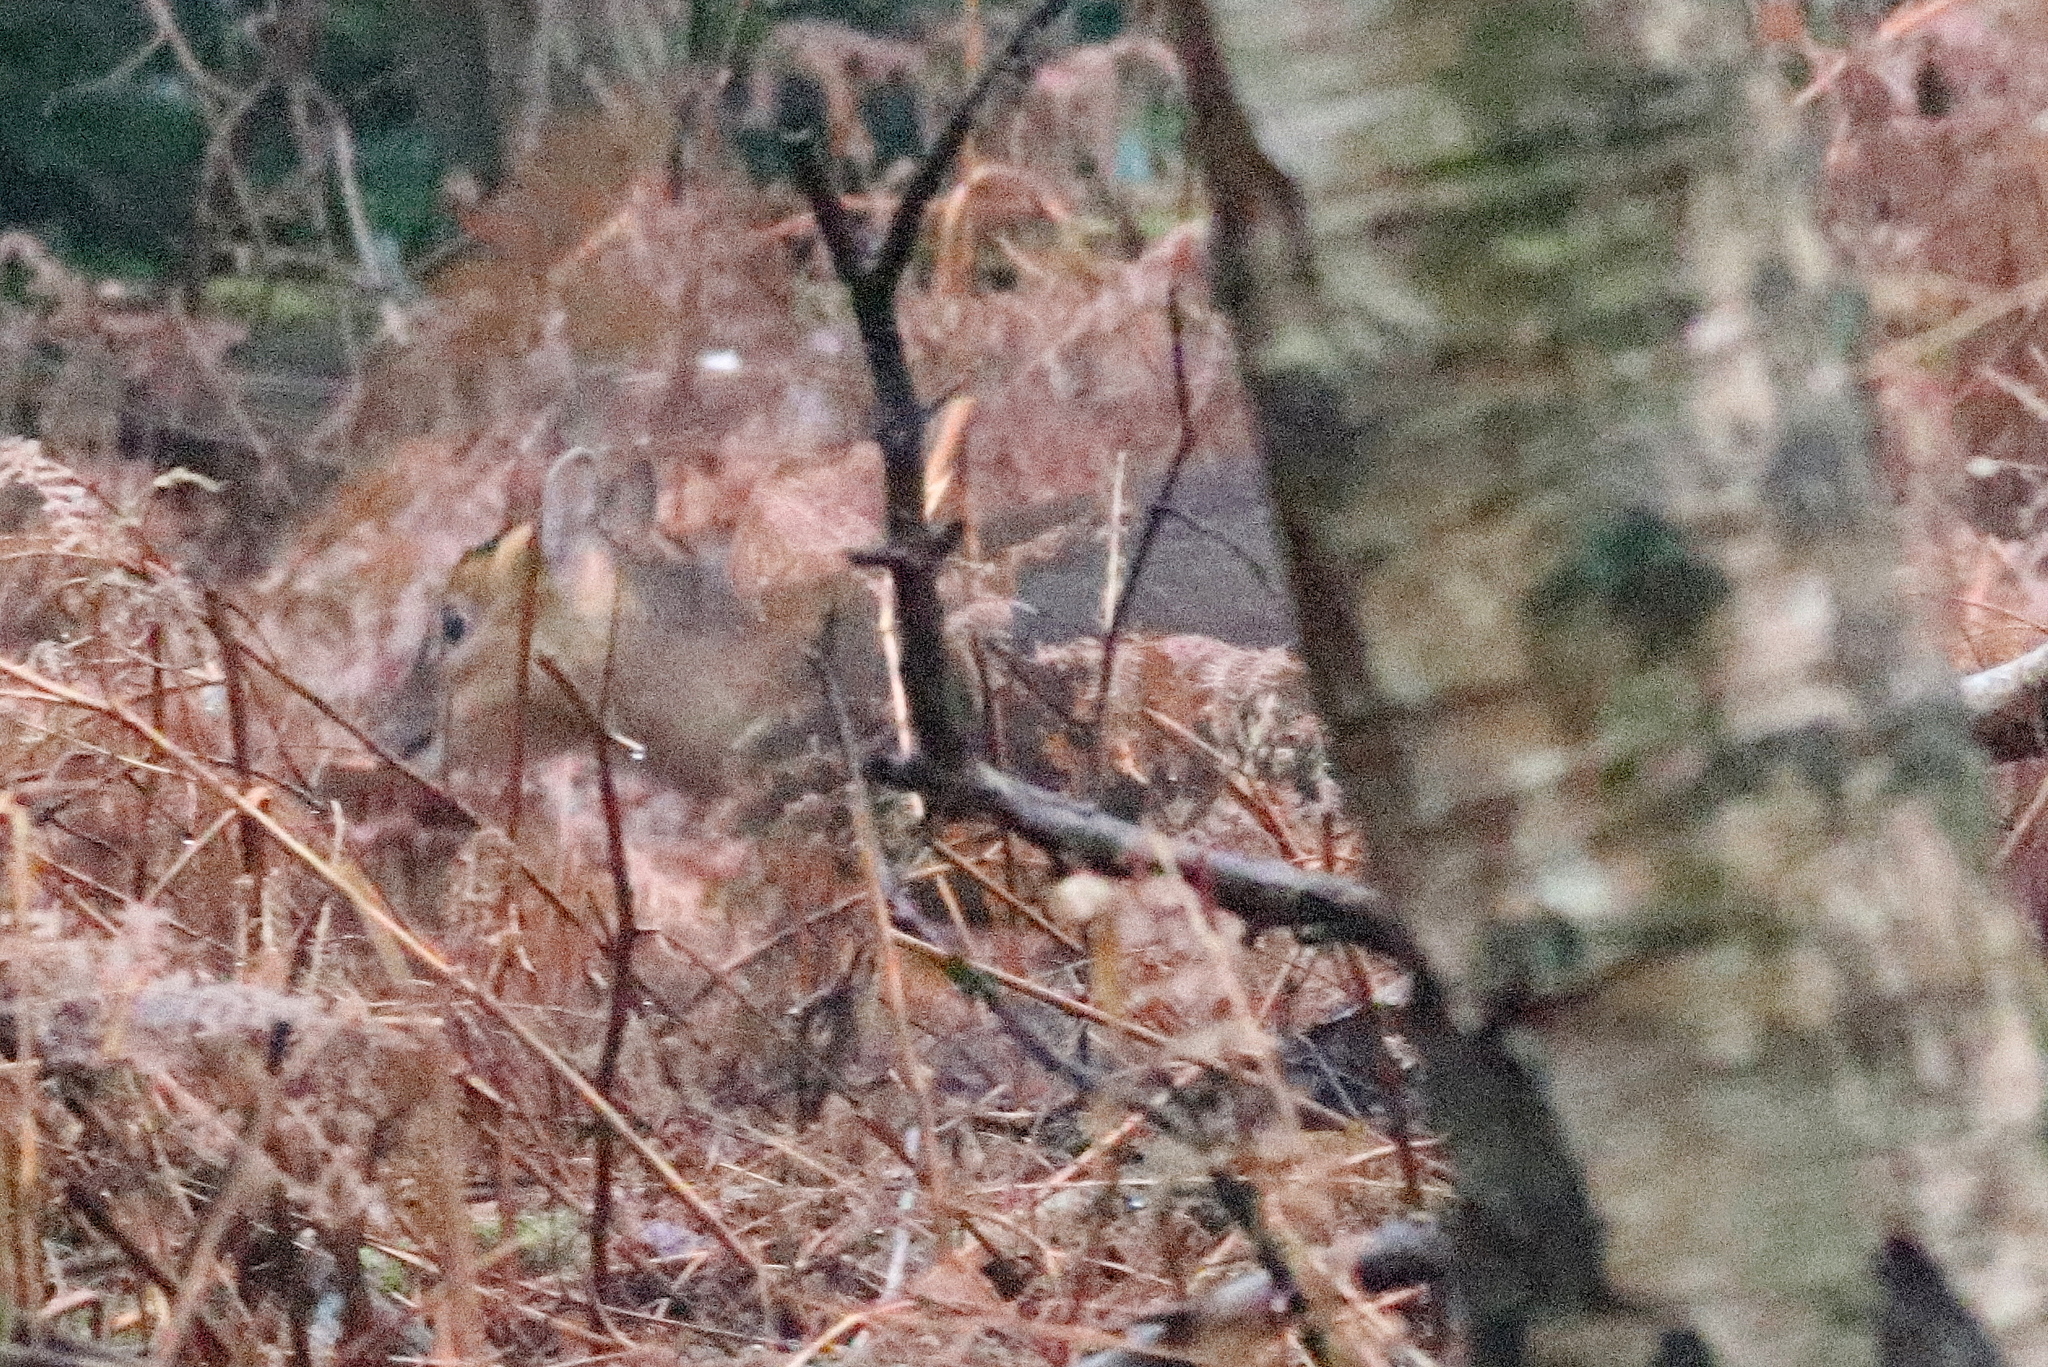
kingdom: Animalia
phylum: Chordata
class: Mammalia
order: Artiodactyla
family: Cervidae
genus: Muntiacus
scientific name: Muntiacus reevesi
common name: Reeves' muntjac
